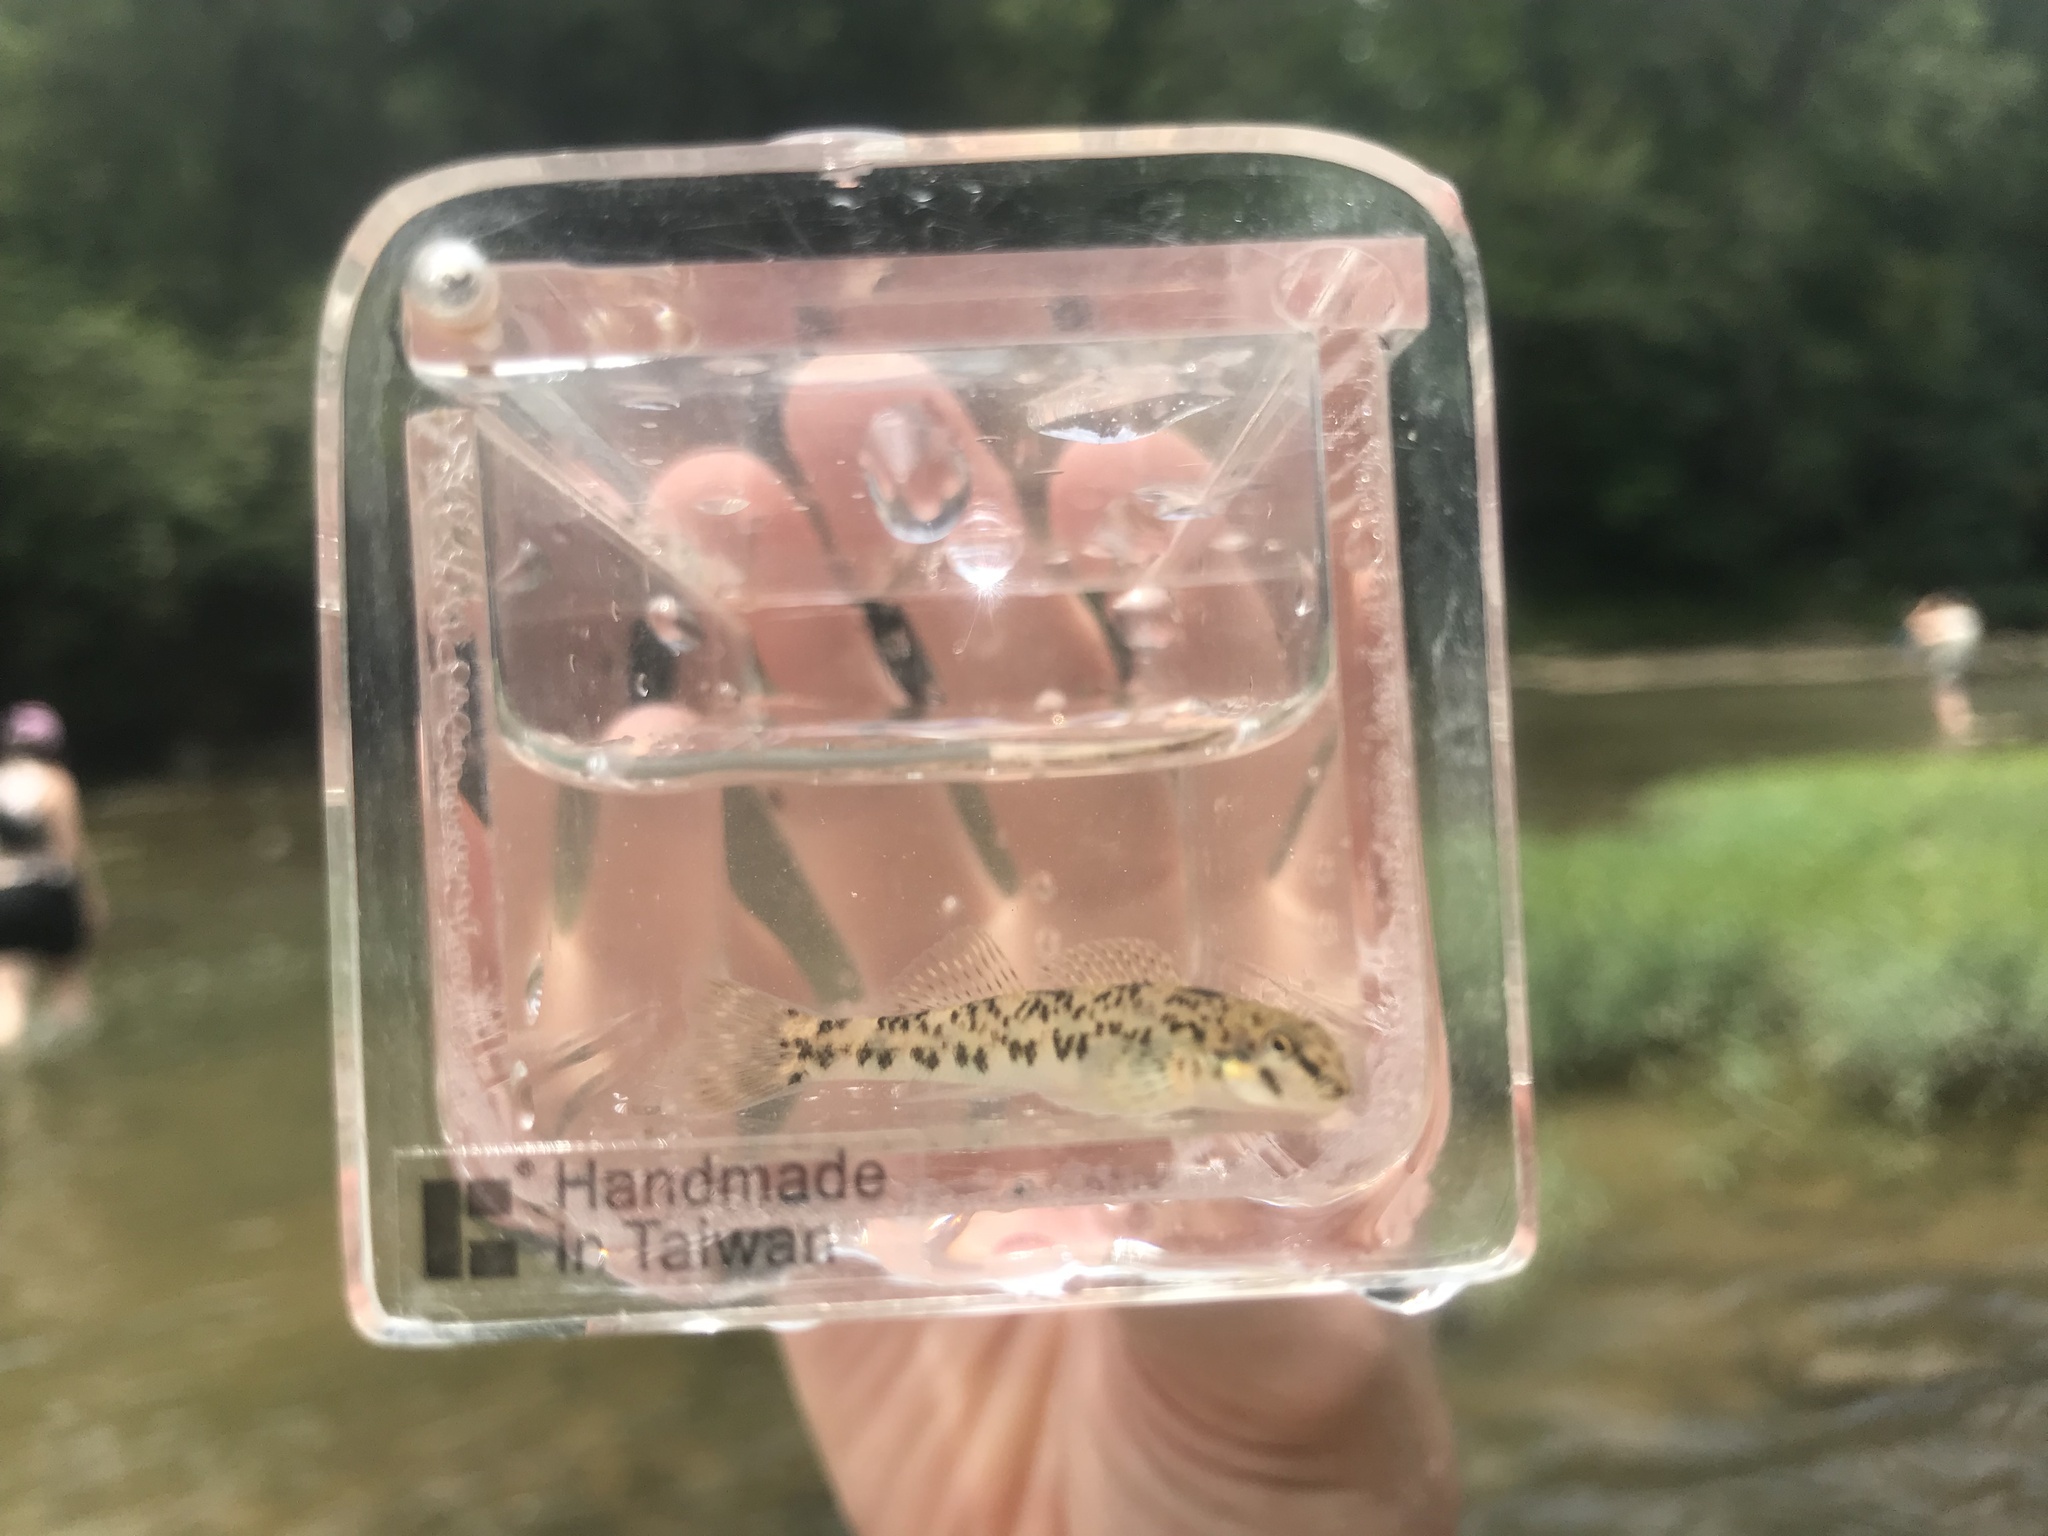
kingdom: Animalia
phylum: Chordata
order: Perciformes
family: Percidae
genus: Etheostoma
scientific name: Etheostoma rupestre
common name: Rock darter
